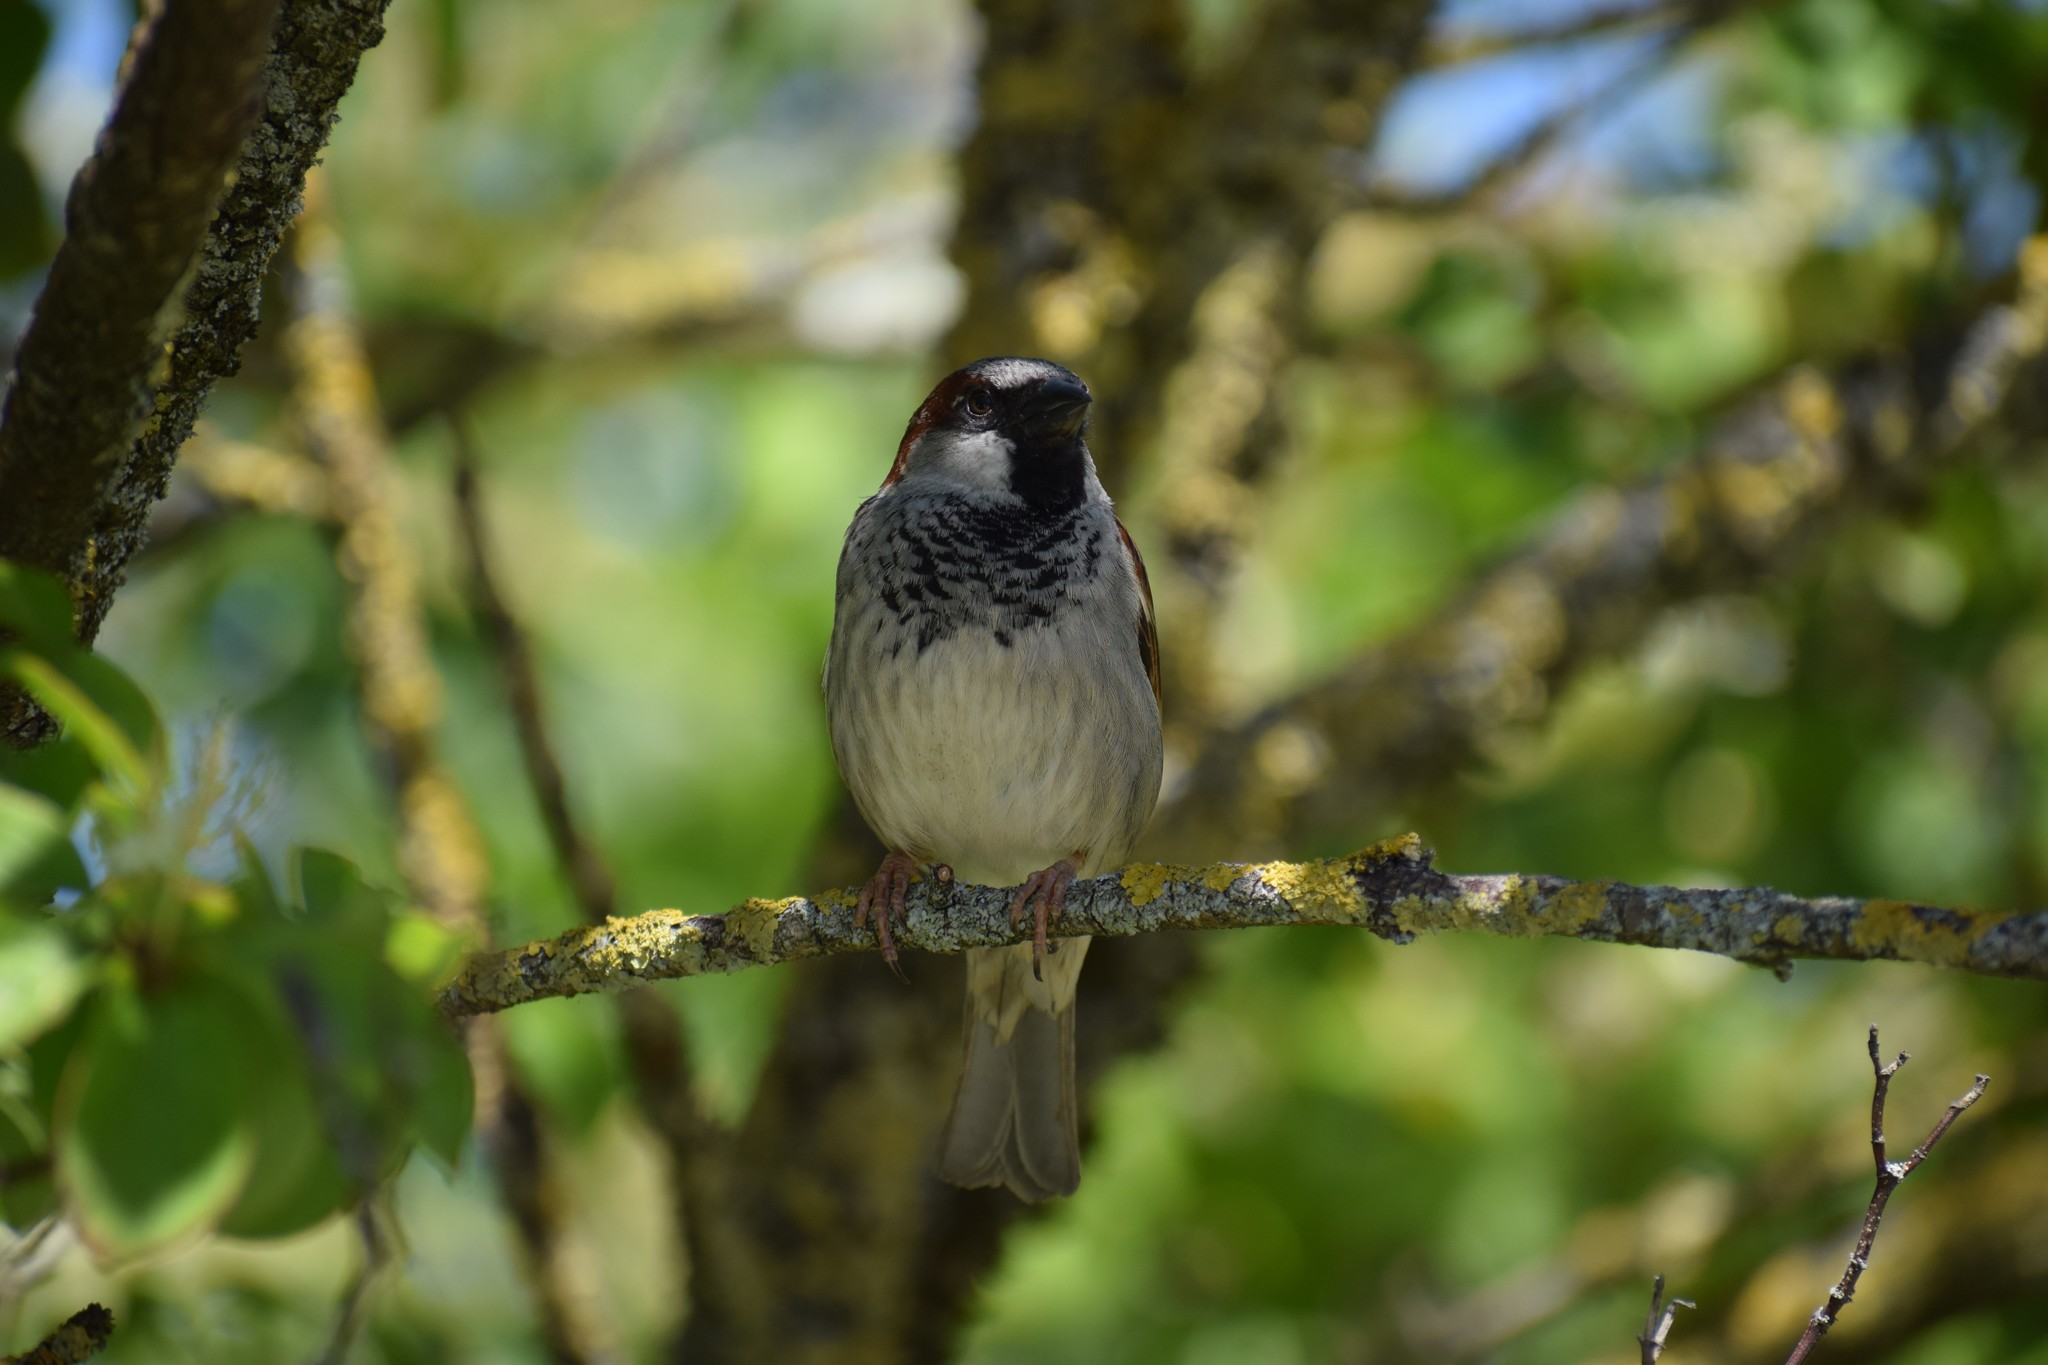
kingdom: Animalia
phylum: Chordata
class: Aves
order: Passeriformes
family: Passeridae
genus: Passer
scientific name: Passer domesticus
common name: House sparrow
